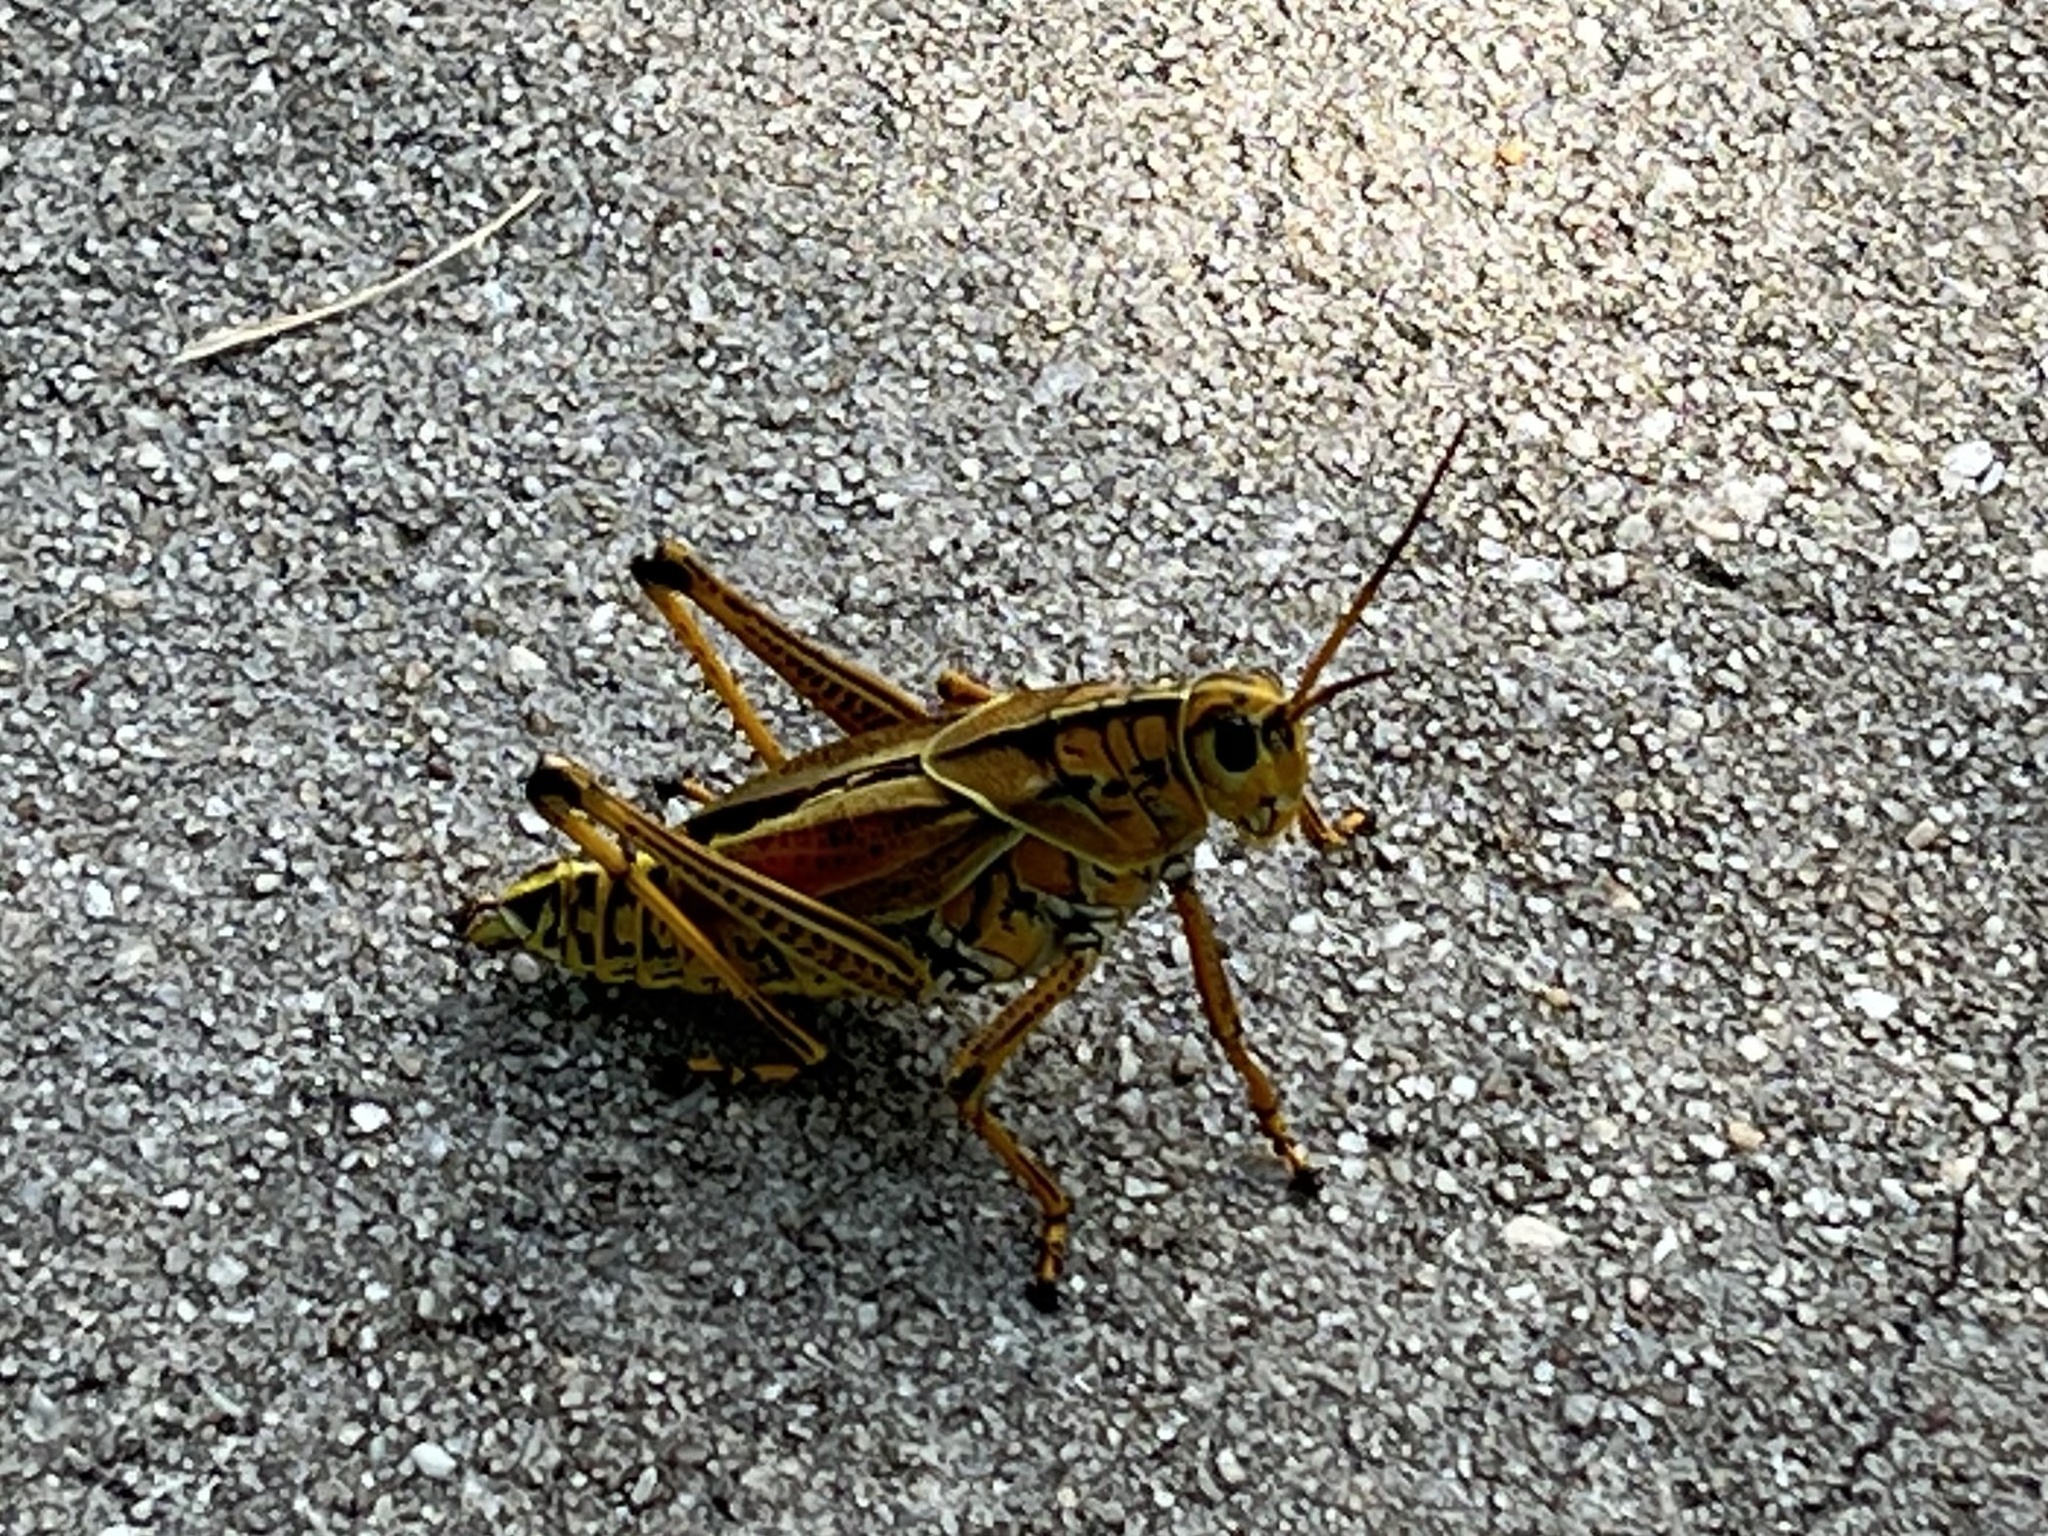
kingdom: Animalia
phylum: Arthropoda
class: Insecta
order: Orthoptera
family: Romaleidae
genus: Romalea
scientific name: Romalea microptera
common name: Eastern lubber grasshopper
